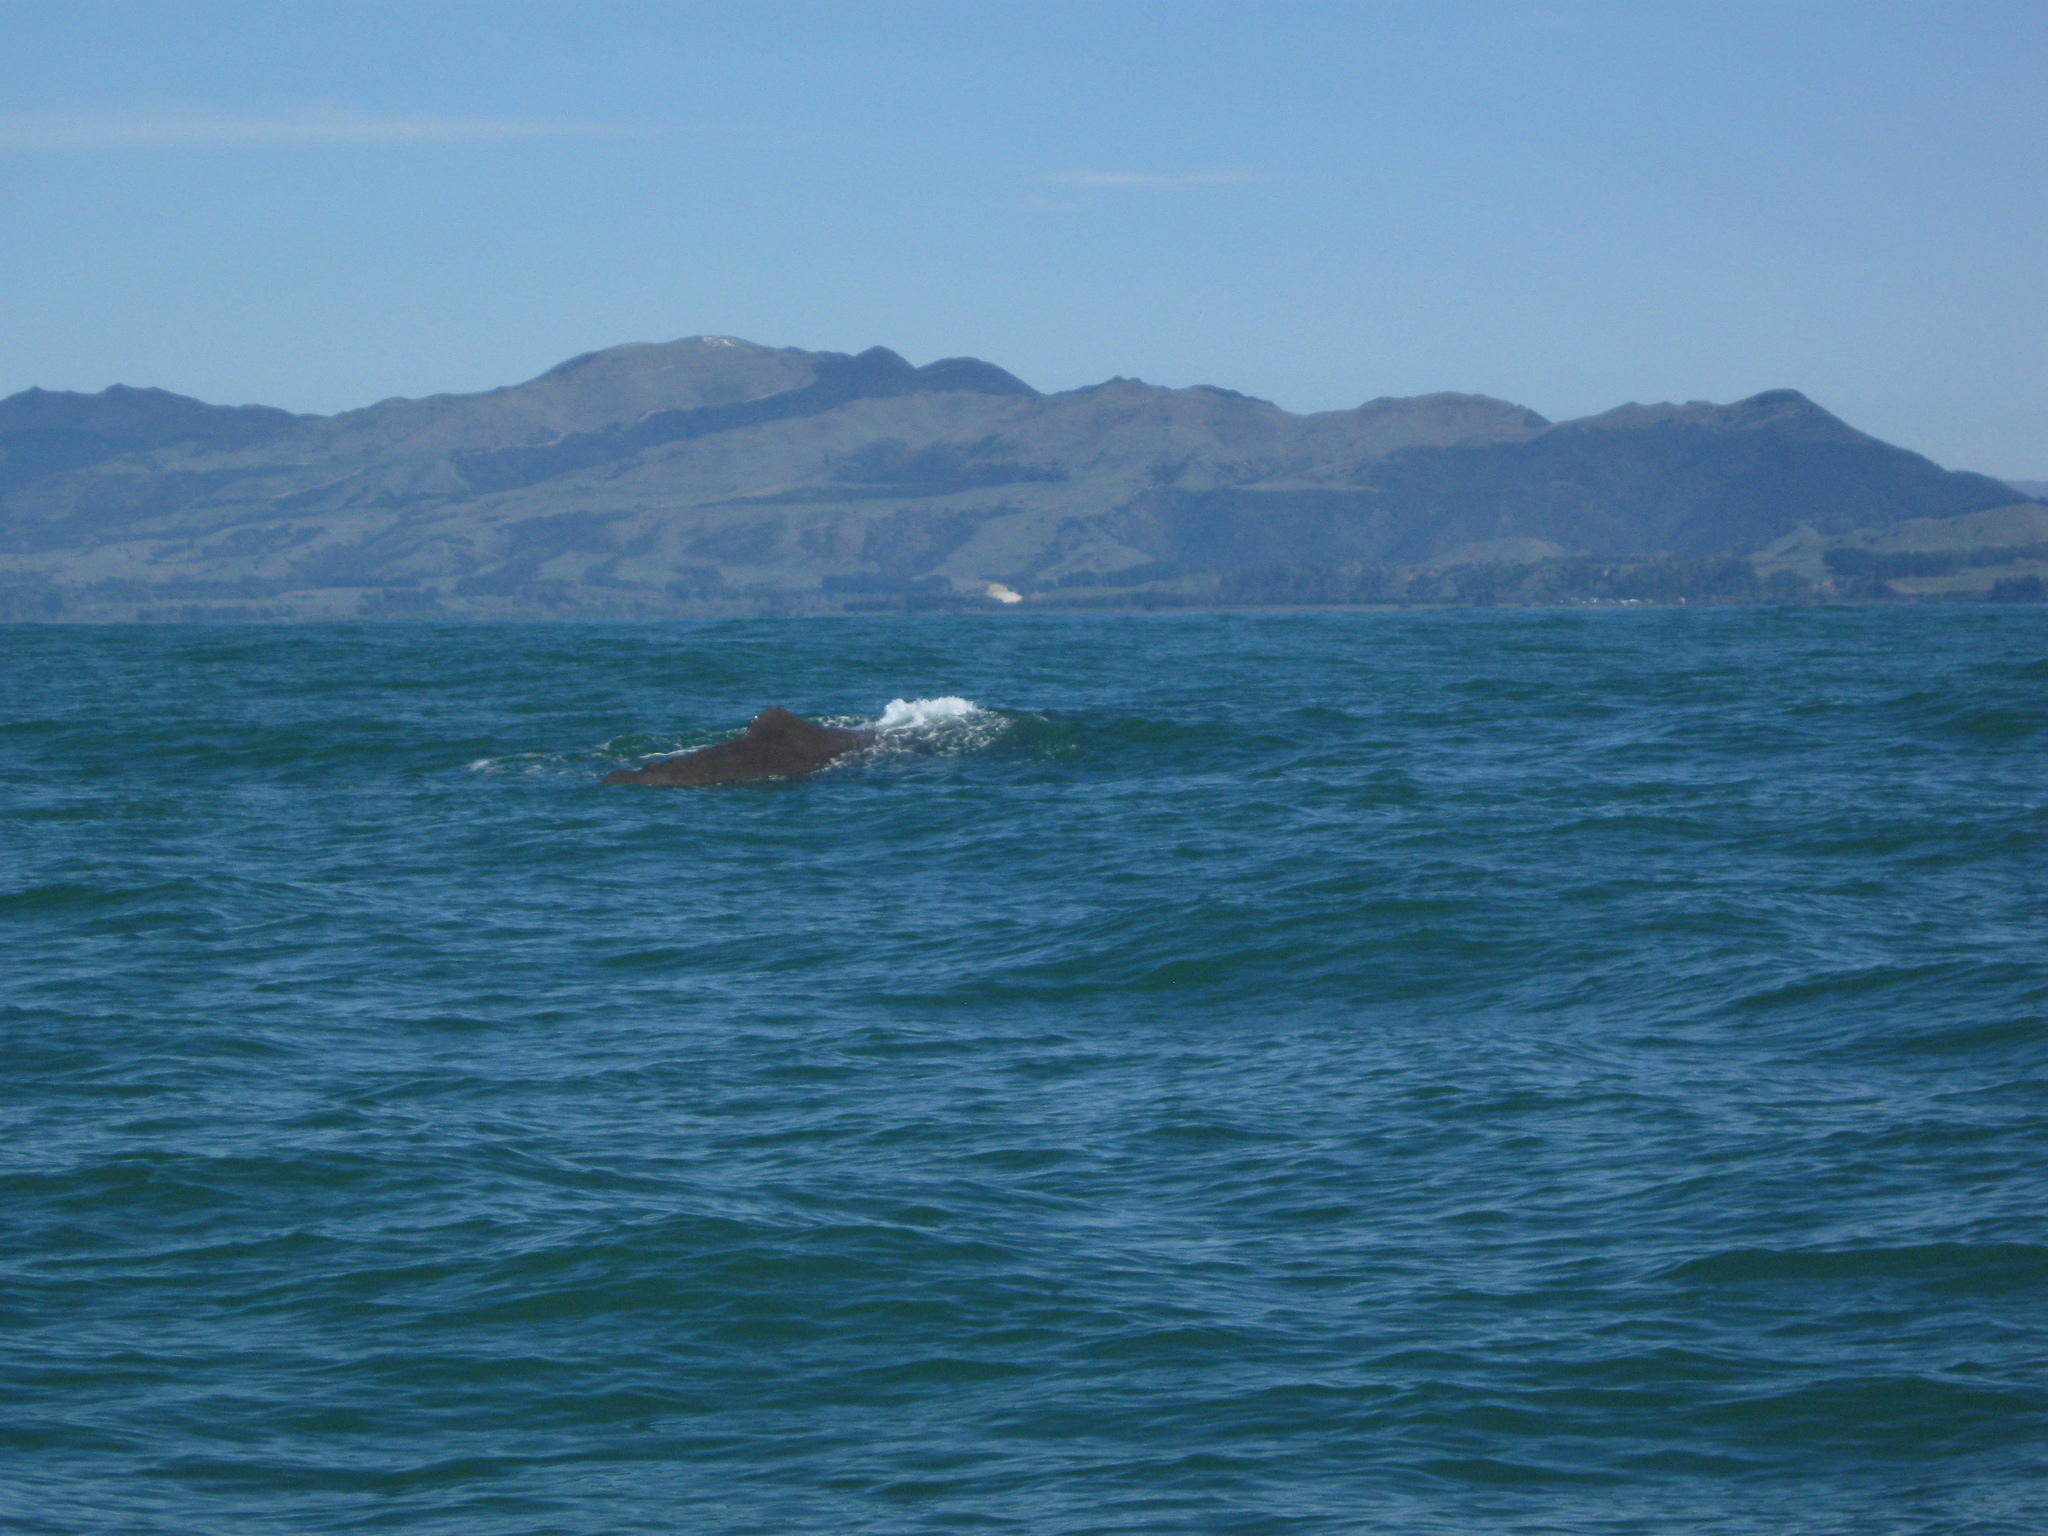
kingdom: Animalia
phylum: Chordata
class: Mammalia
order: Cetacea
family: Physeteridae
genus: Physeter
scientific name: Physeter macrocephalus
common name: Sperm whale
